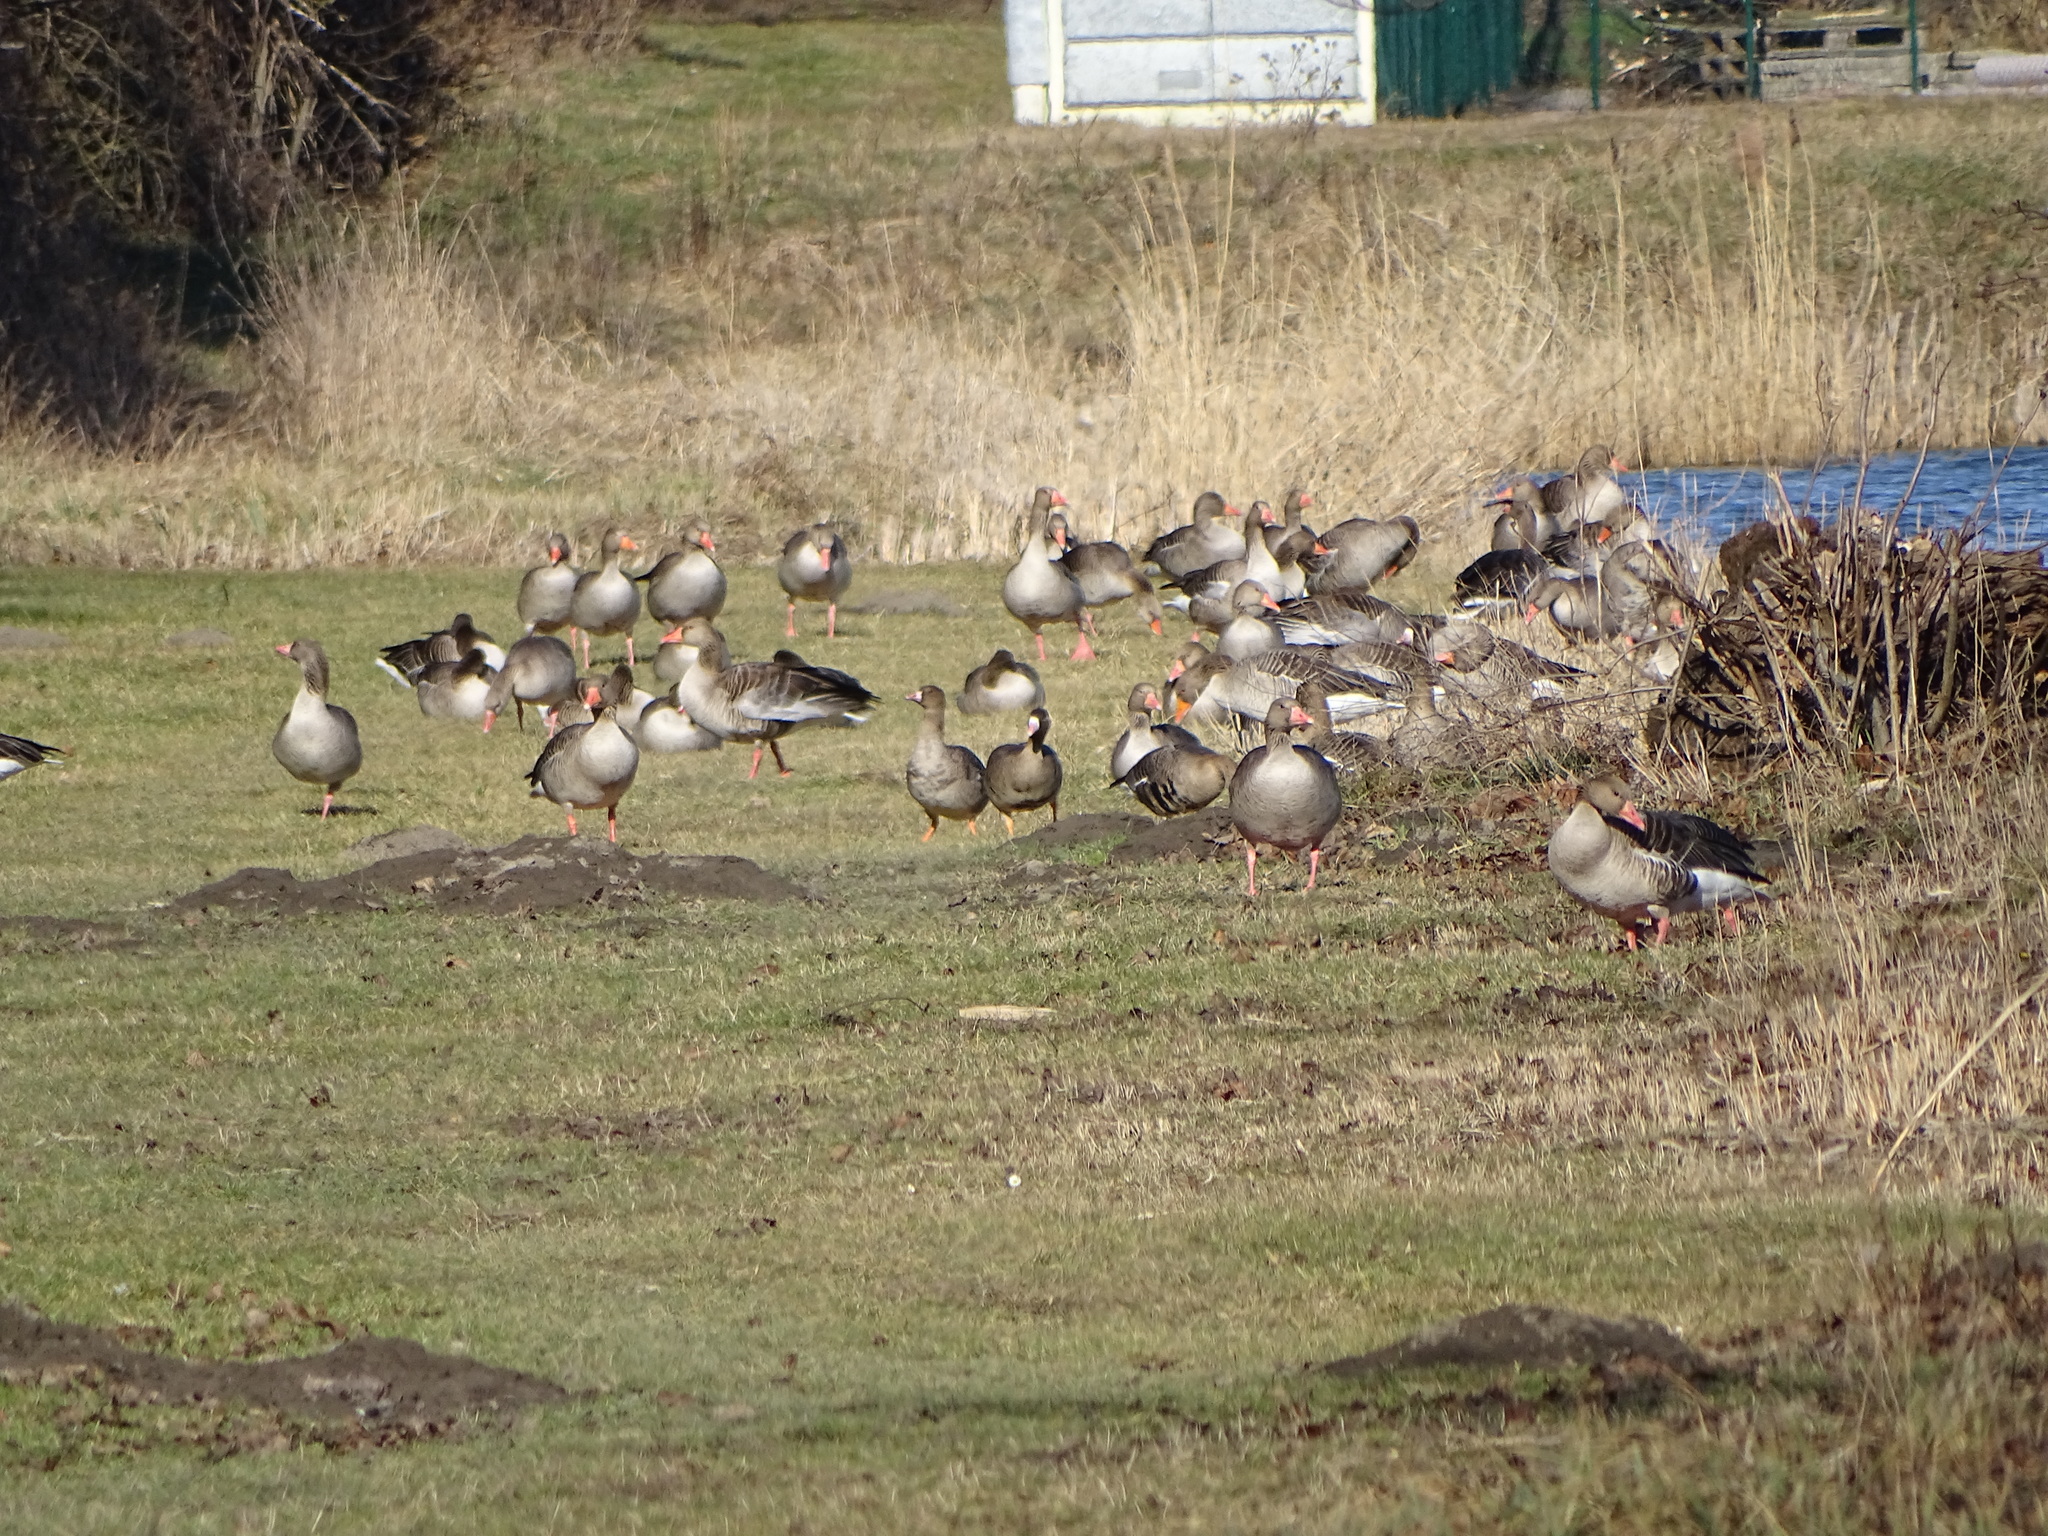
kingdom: Animalia
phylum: Chordata
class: Aves
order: Anseriformes
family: Anatidae
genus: Anser
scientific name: Anser anser
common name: Greylag goose
